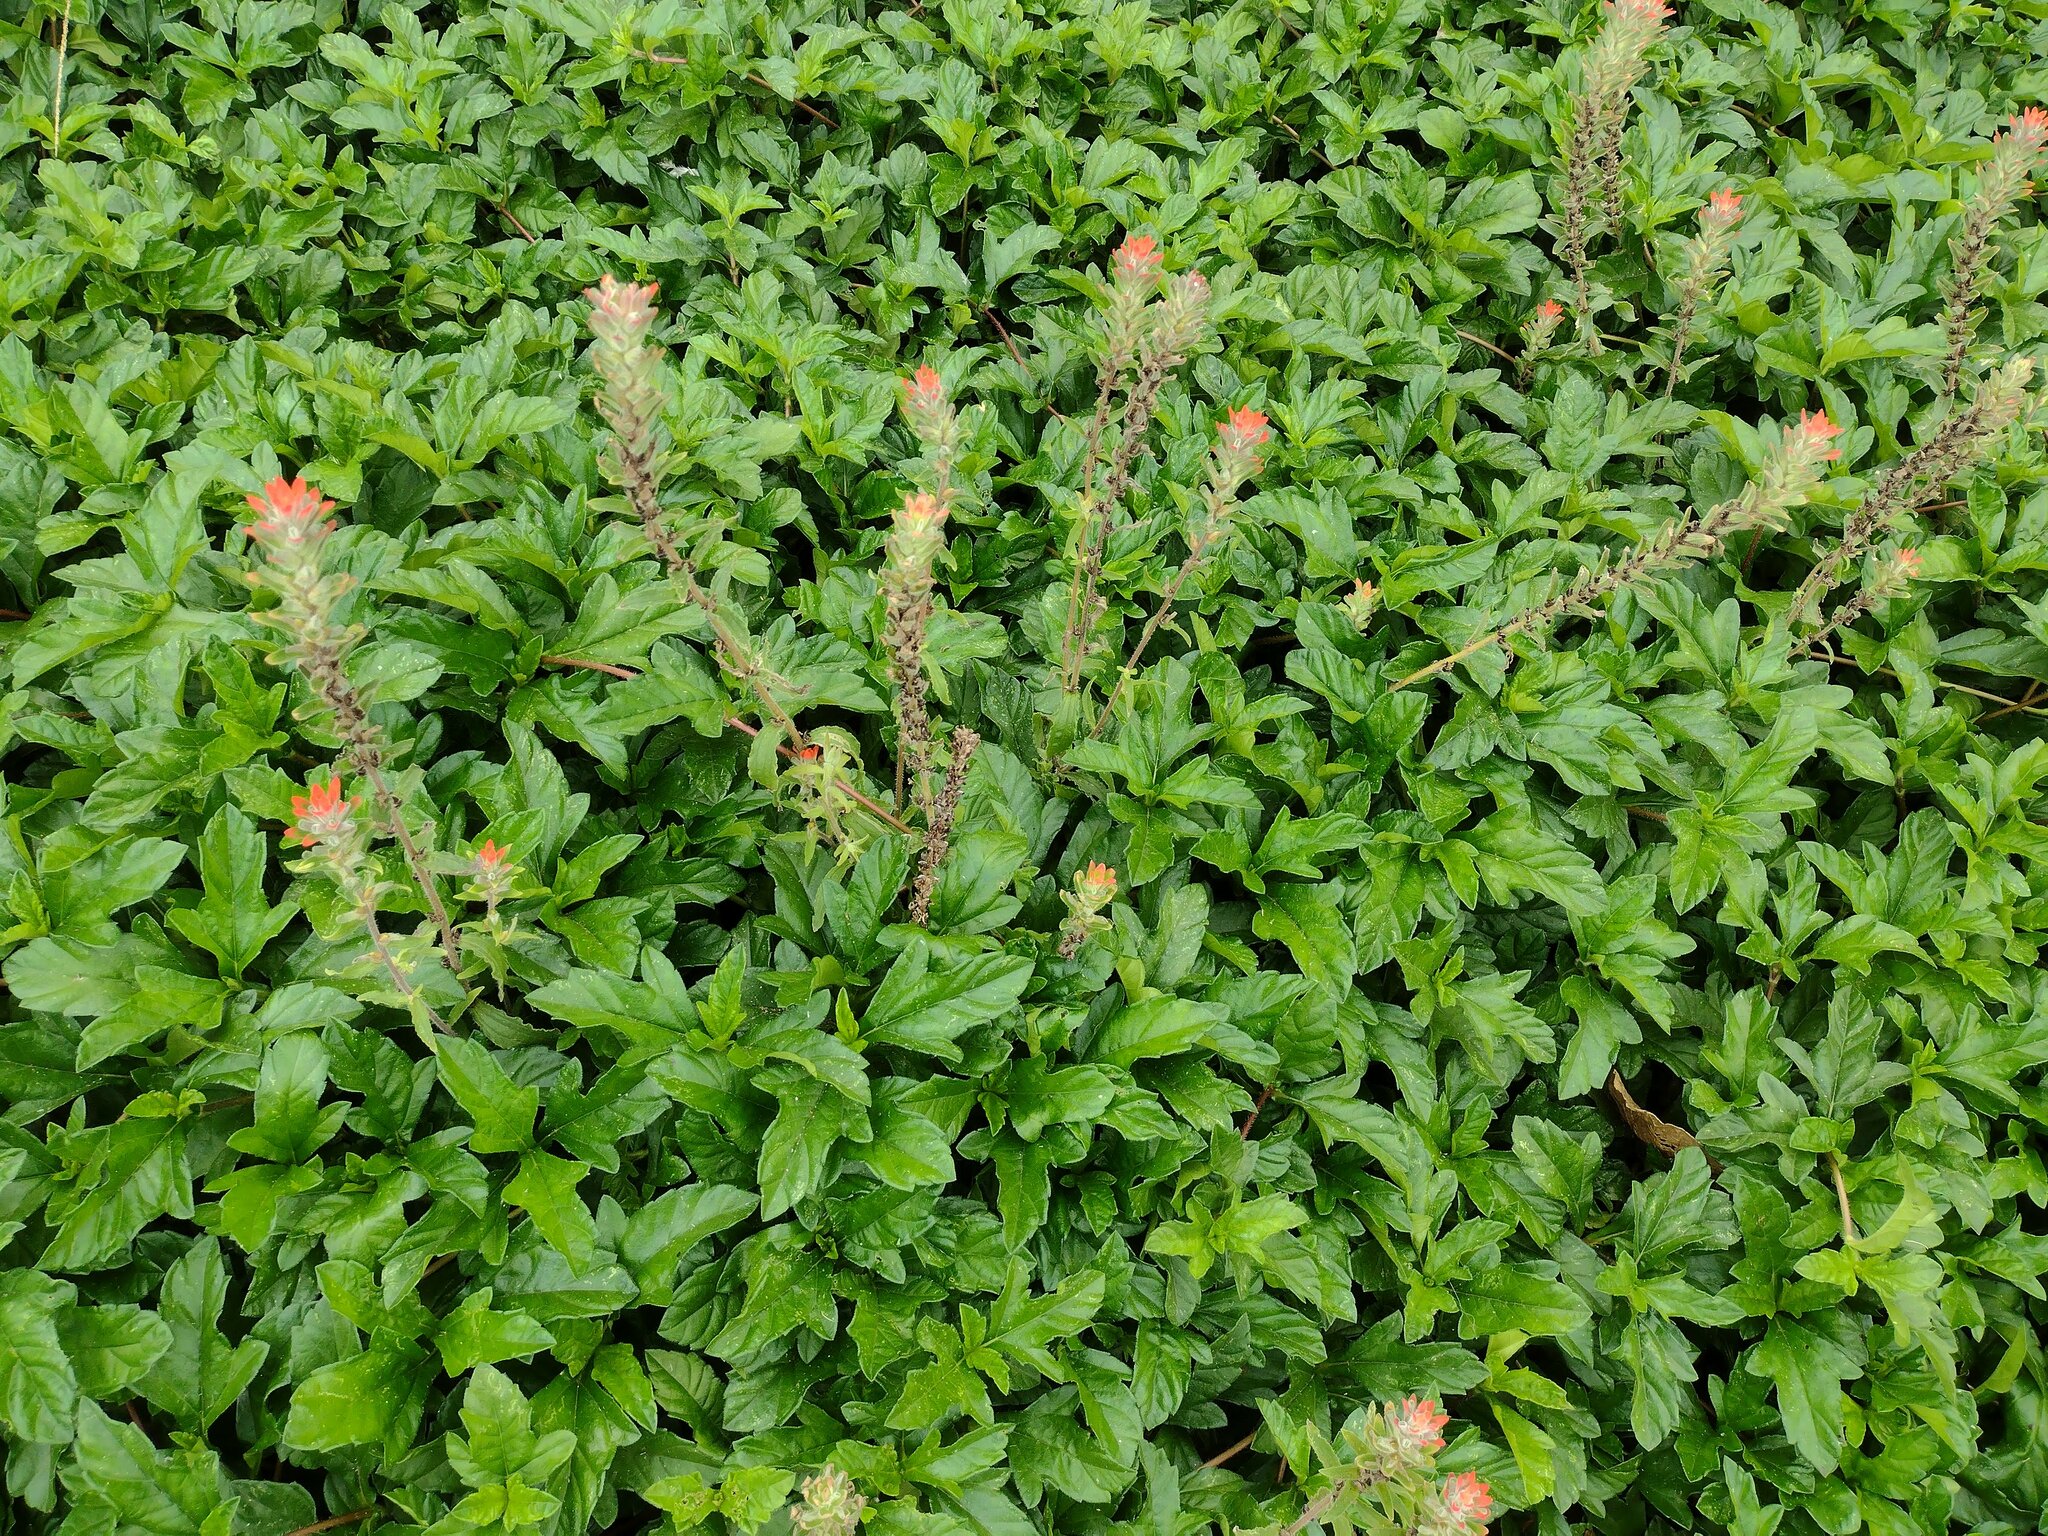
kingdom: Plantae
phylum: Tracheophyta
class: Magnoliopsida
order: Lamiales
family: Orobanchaceae
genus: Castilleja
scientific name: Castilleja arvensis
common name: Indian paintbrush
